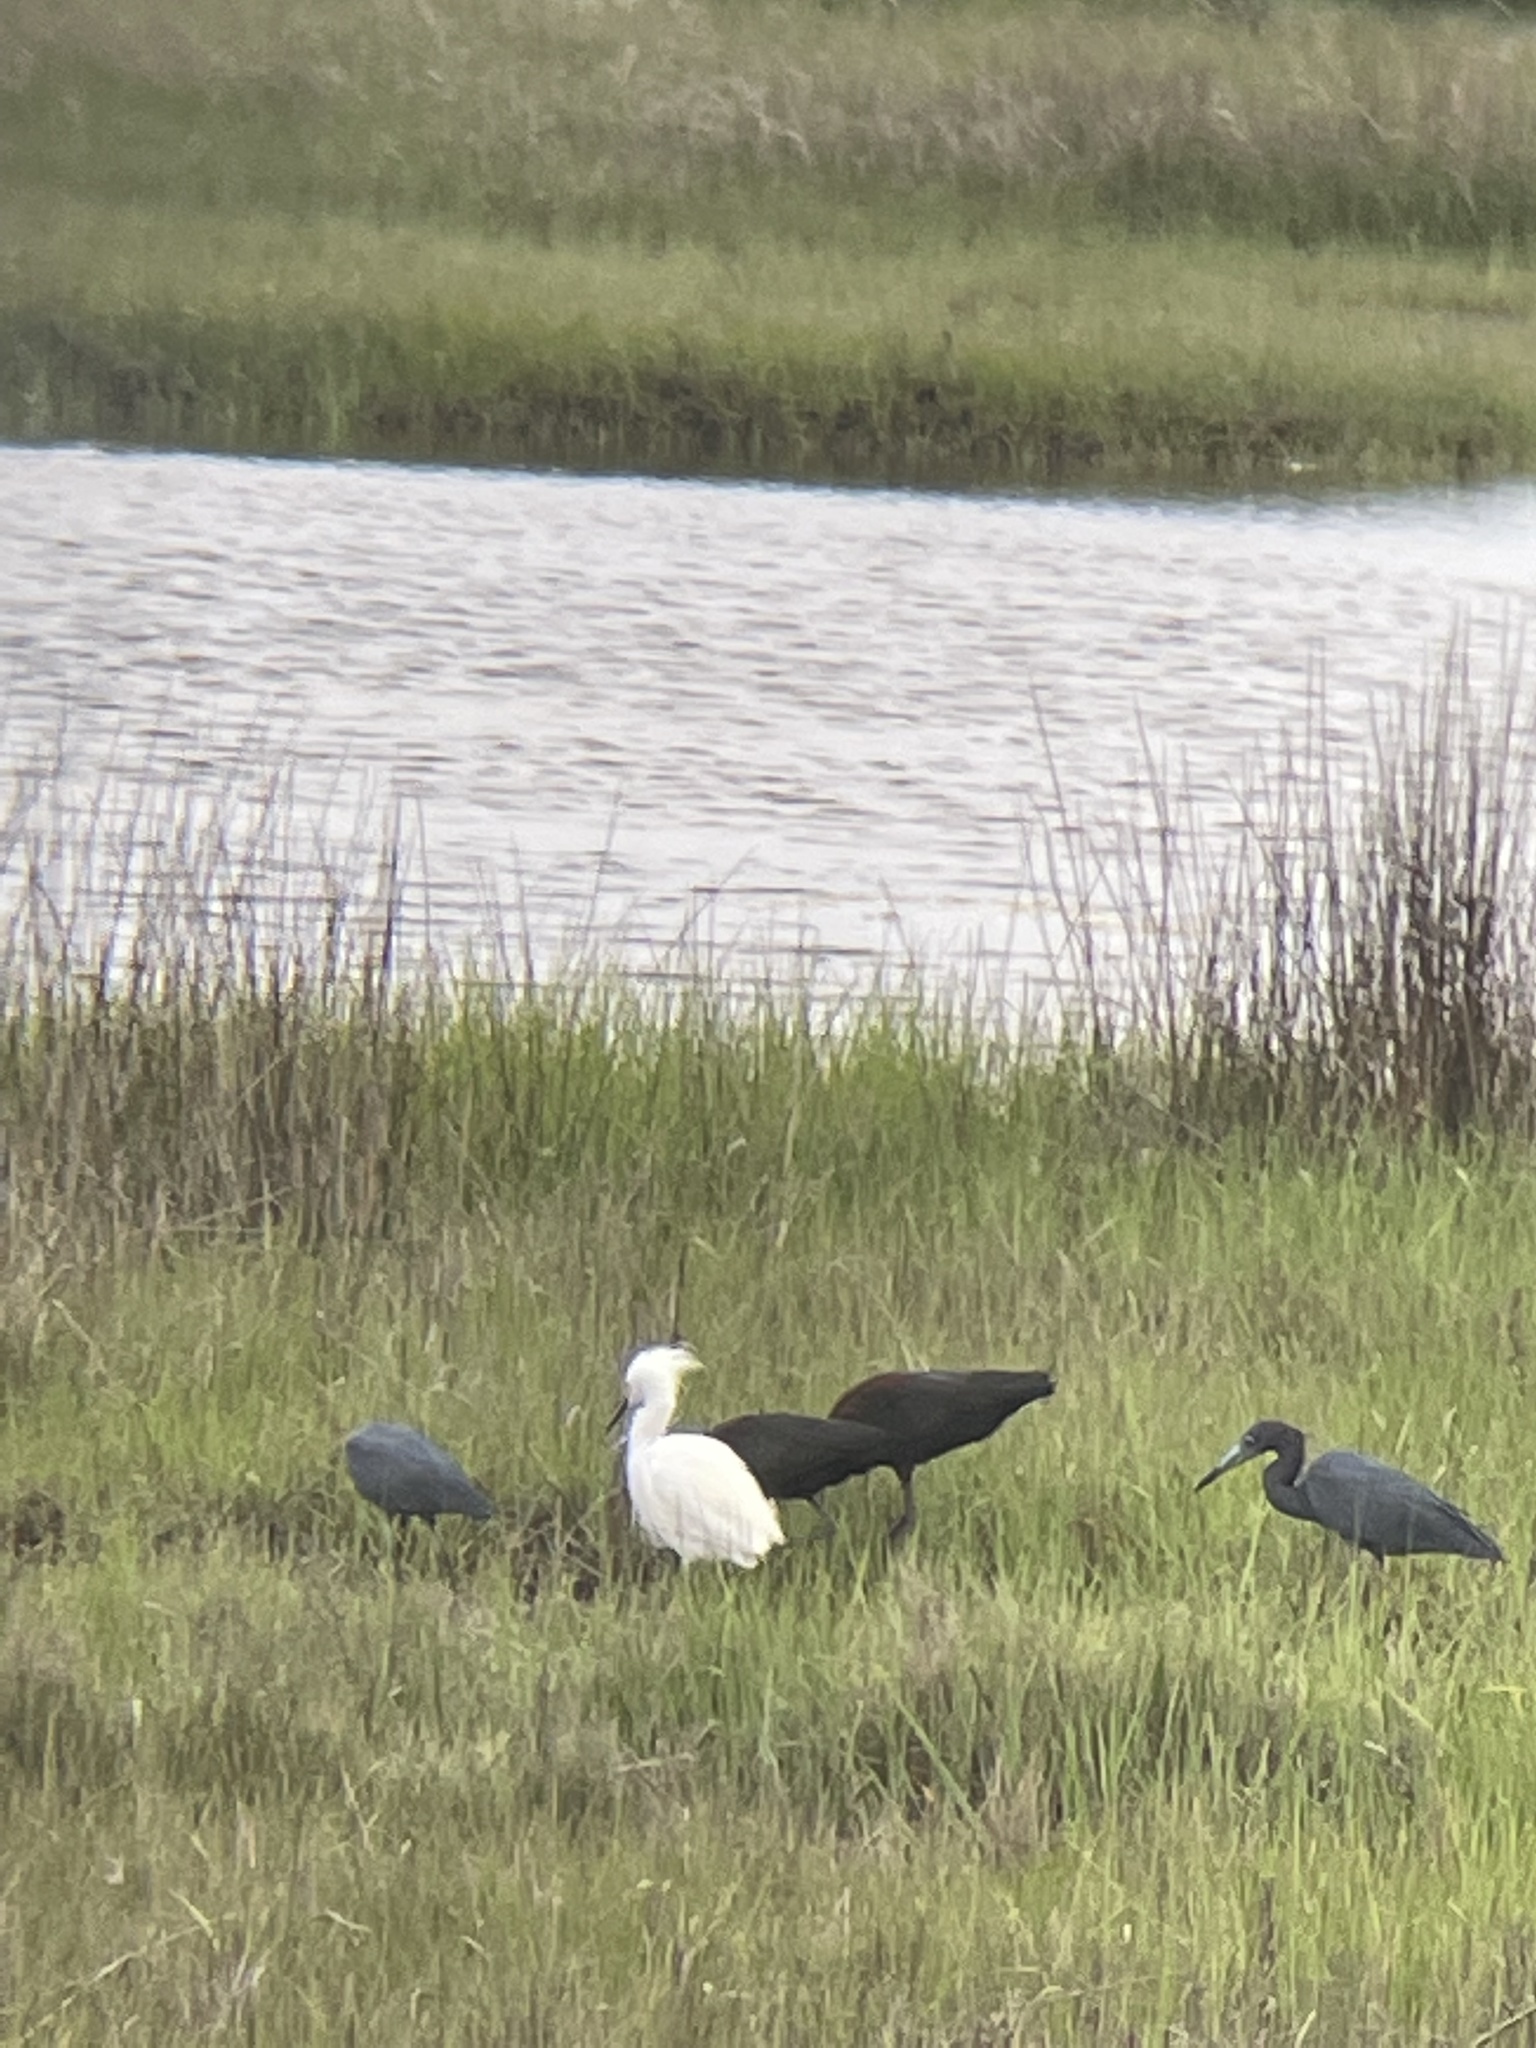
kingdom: Animalia
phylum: Chordata
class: Aves
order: Pelecaniformes
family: Ardeidae
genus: Egretta
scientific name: Egretta caerulea
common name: Little blue heron
